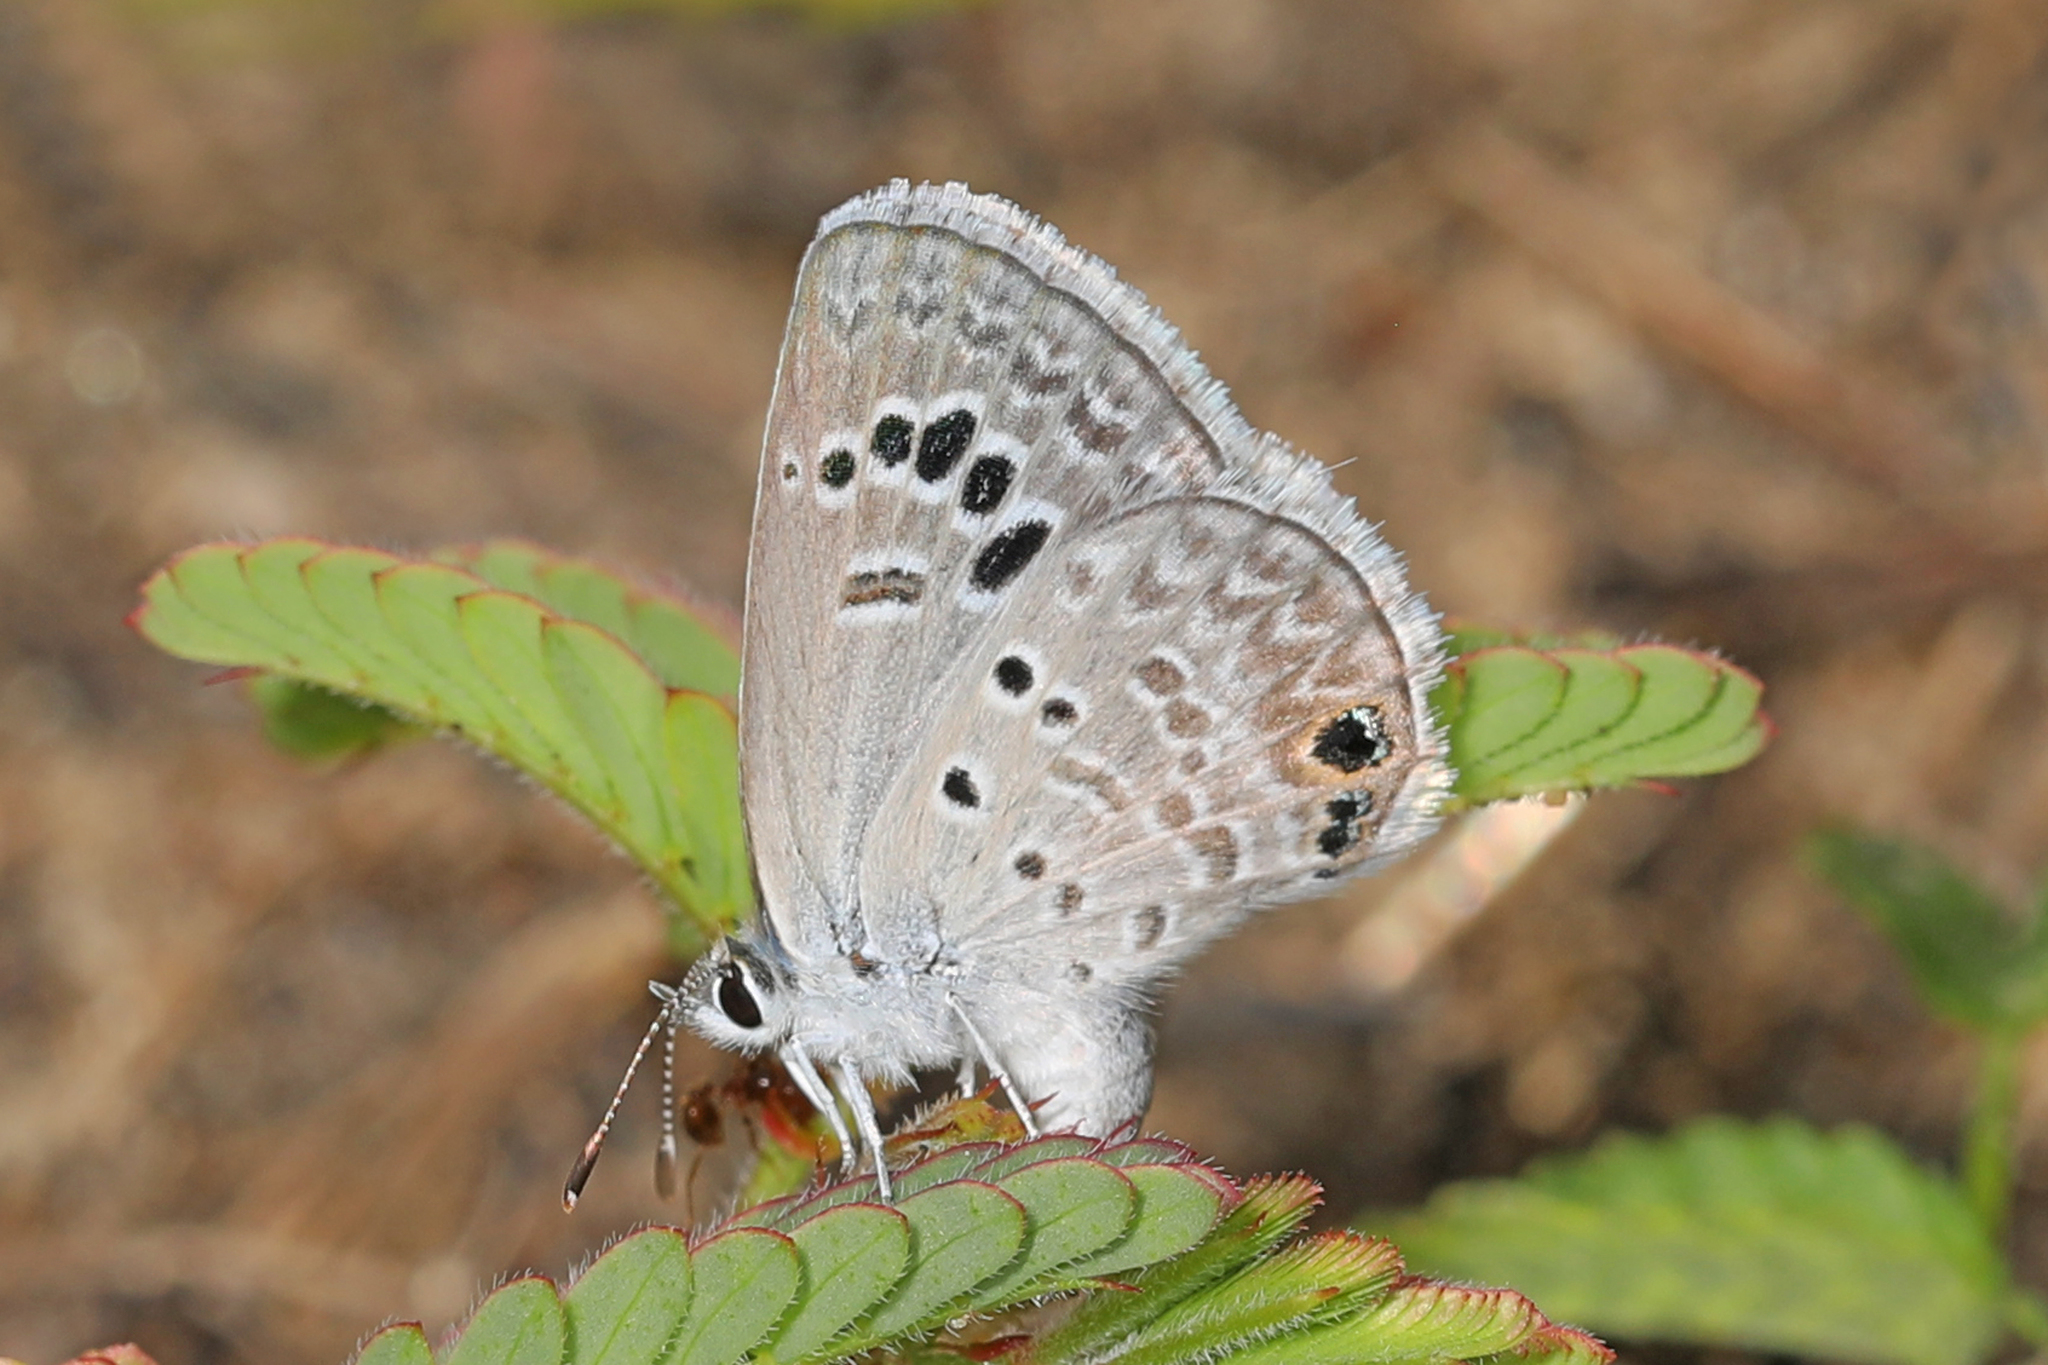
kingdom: Animalia
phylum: Arthropoda
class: Insecta
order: Lepidoptera
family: Lycaenidae
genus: Echinargus
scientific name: Echinargus isola
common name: Reakirt's blue
